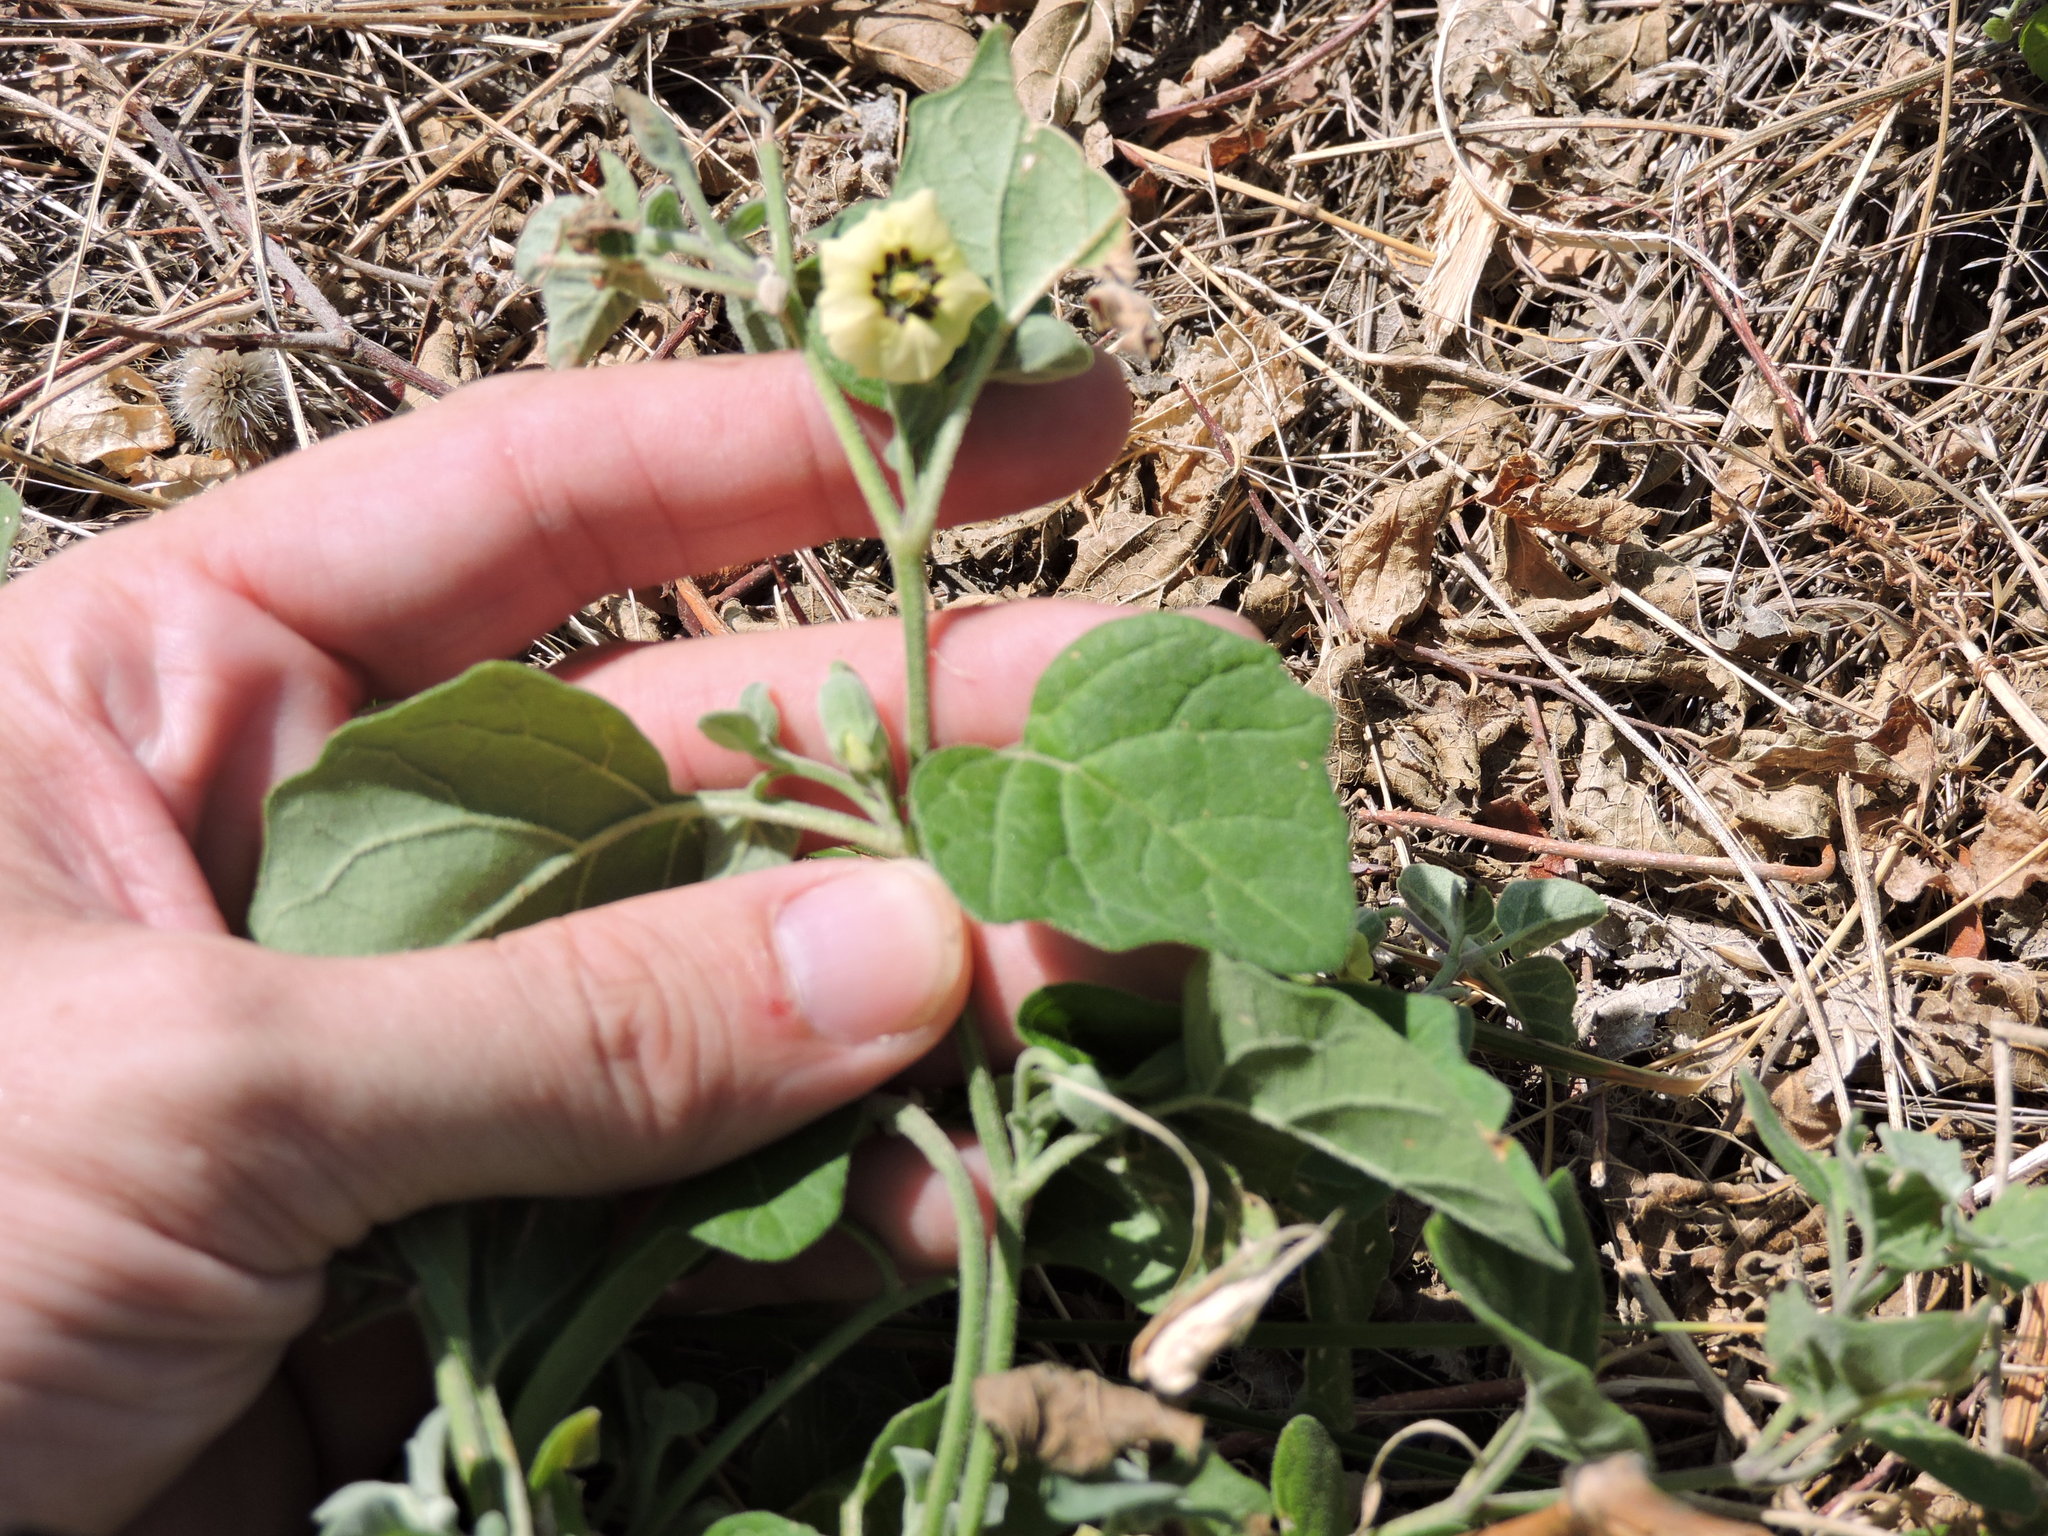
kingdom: Plantae
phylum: Tracheophyta
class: Magnoliopsida
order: Solanales
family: Solanaceae
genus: Physalis
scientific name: Physalis cinerascens
